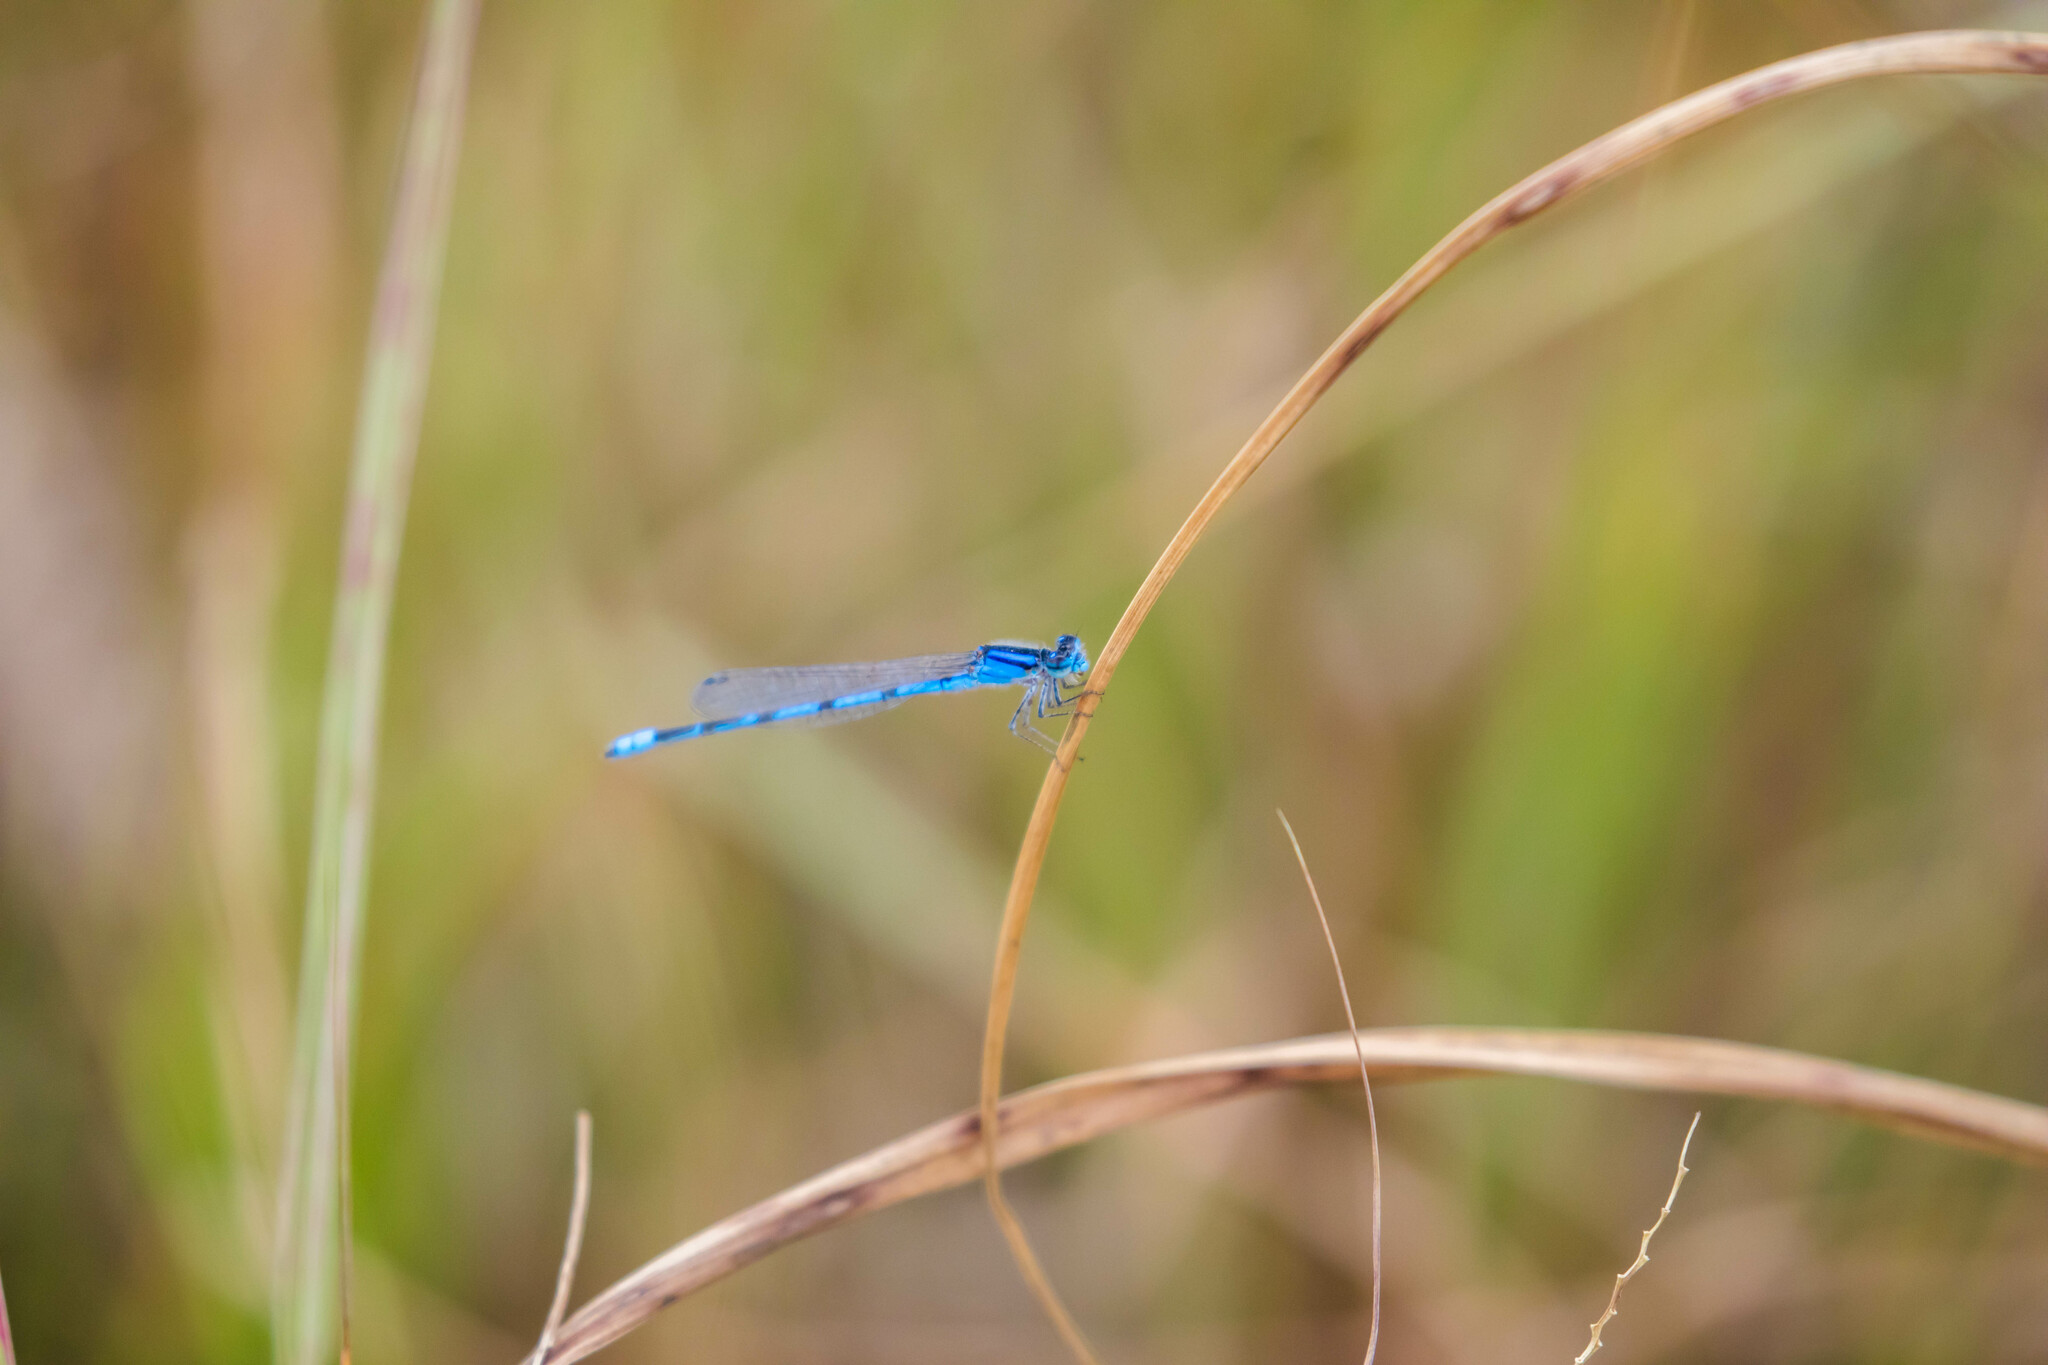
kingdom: Animalia
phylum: Arthropoda
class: Insecta
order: Odonata
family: Coenagrionidae
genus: Enallagma
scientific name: Enallagma civile
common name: Damselfly
